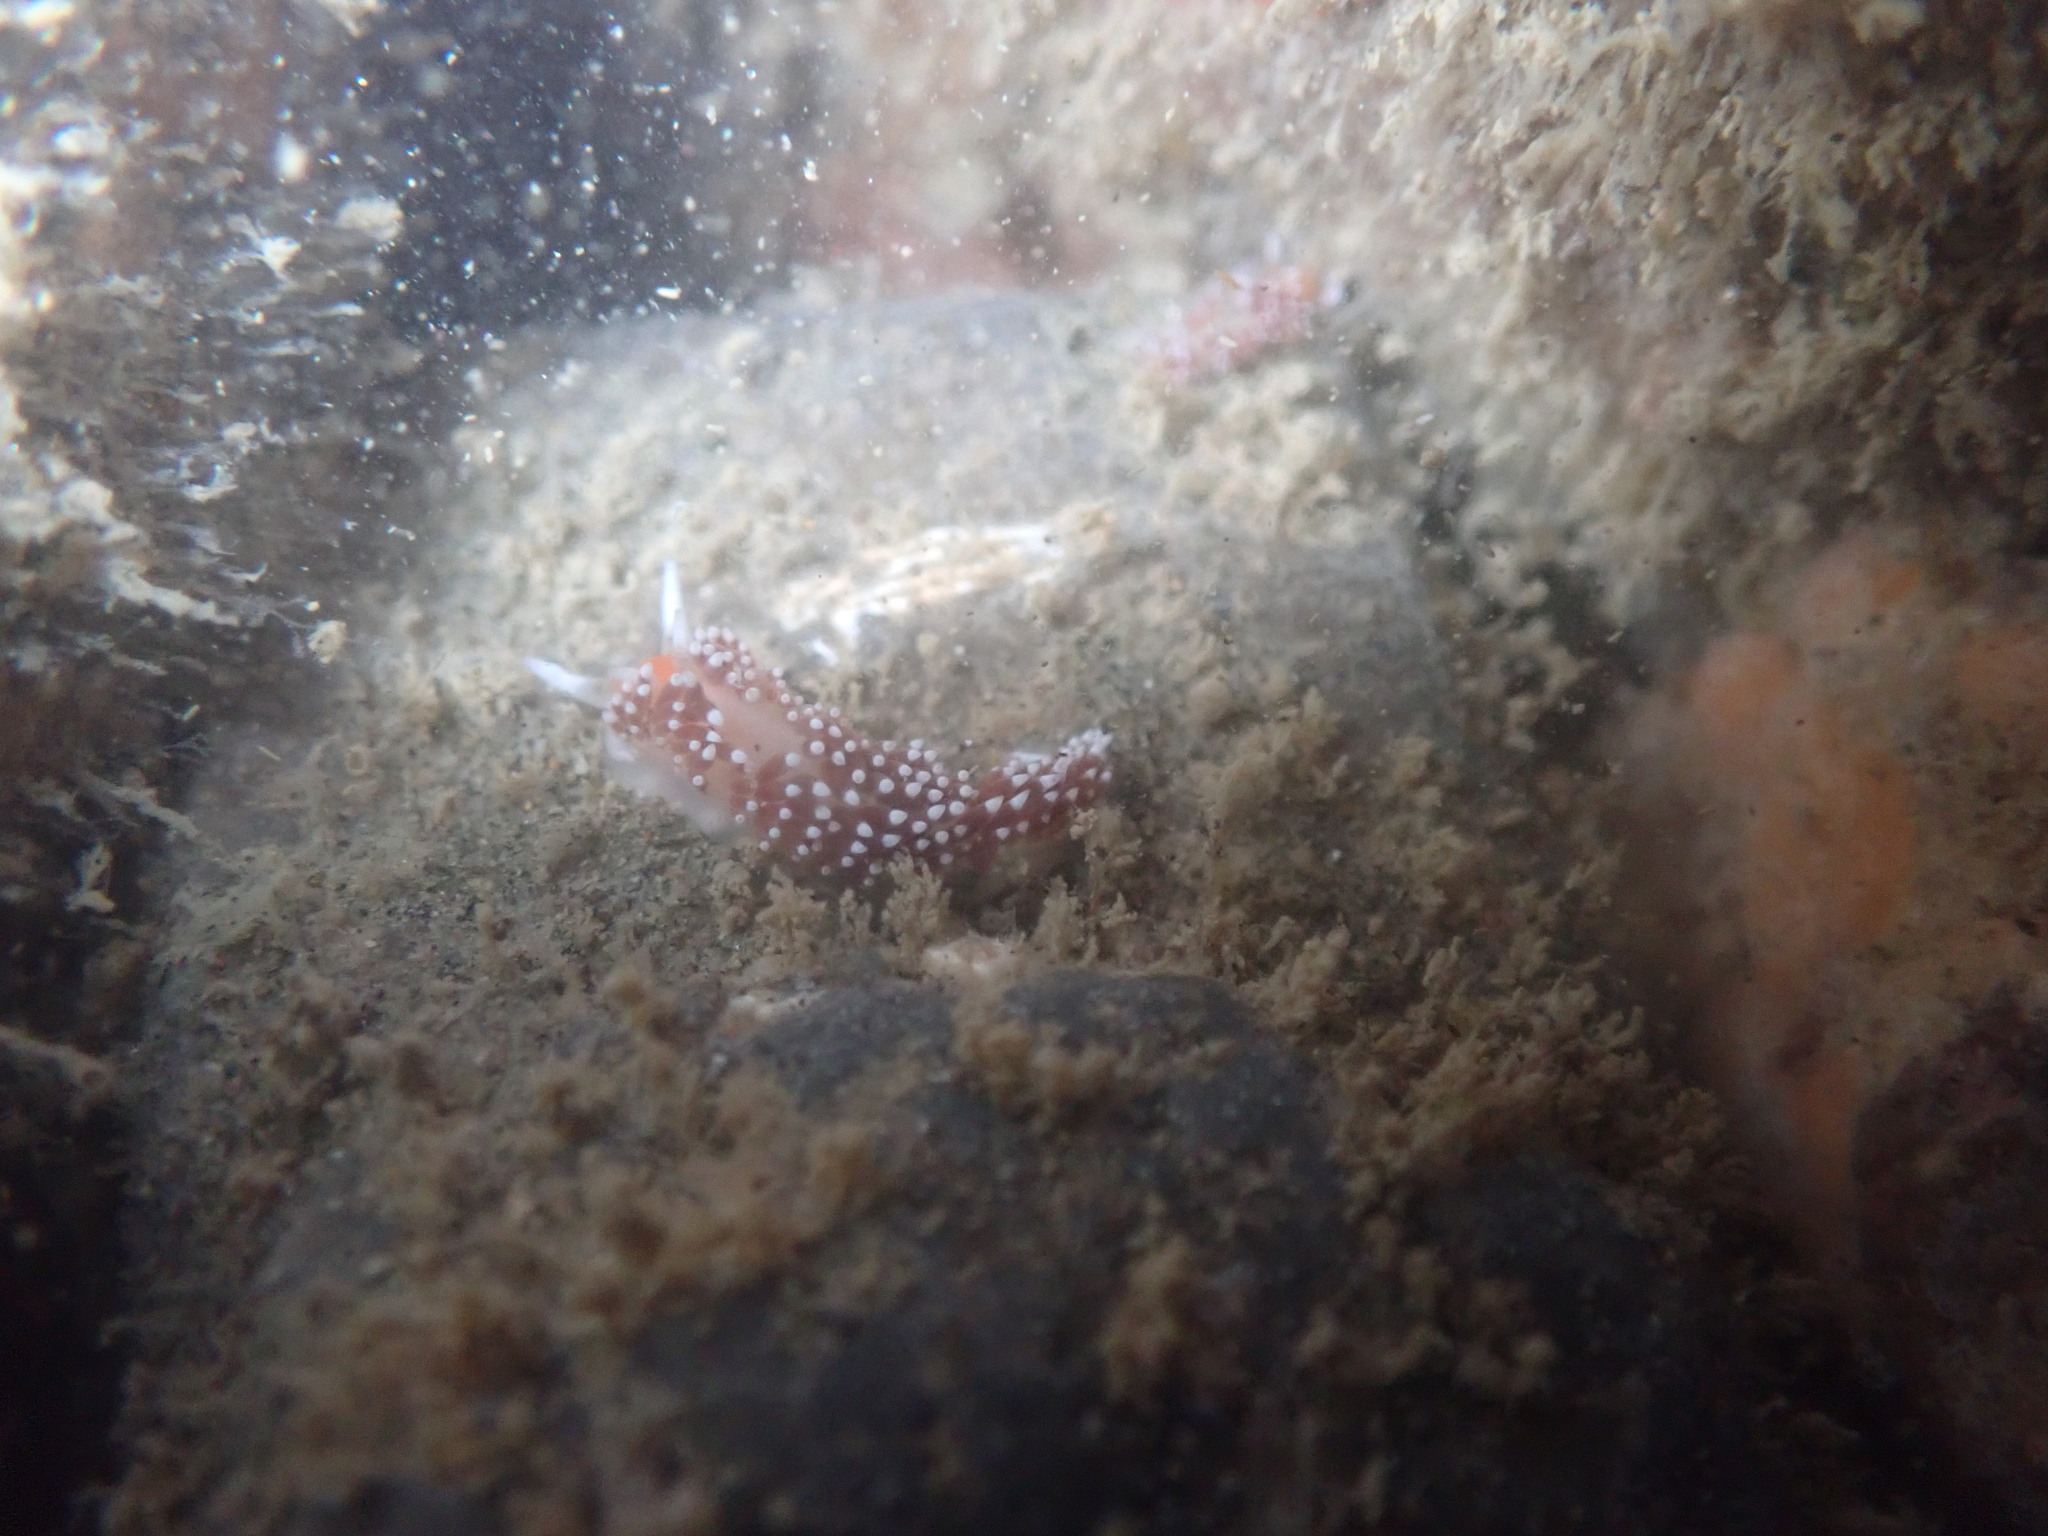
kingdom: Animalia
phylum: Mollusca
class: Gastropoda
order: Nudibranchia
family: Facelinidae
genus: Phidiana
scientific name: Phidiana milleri
